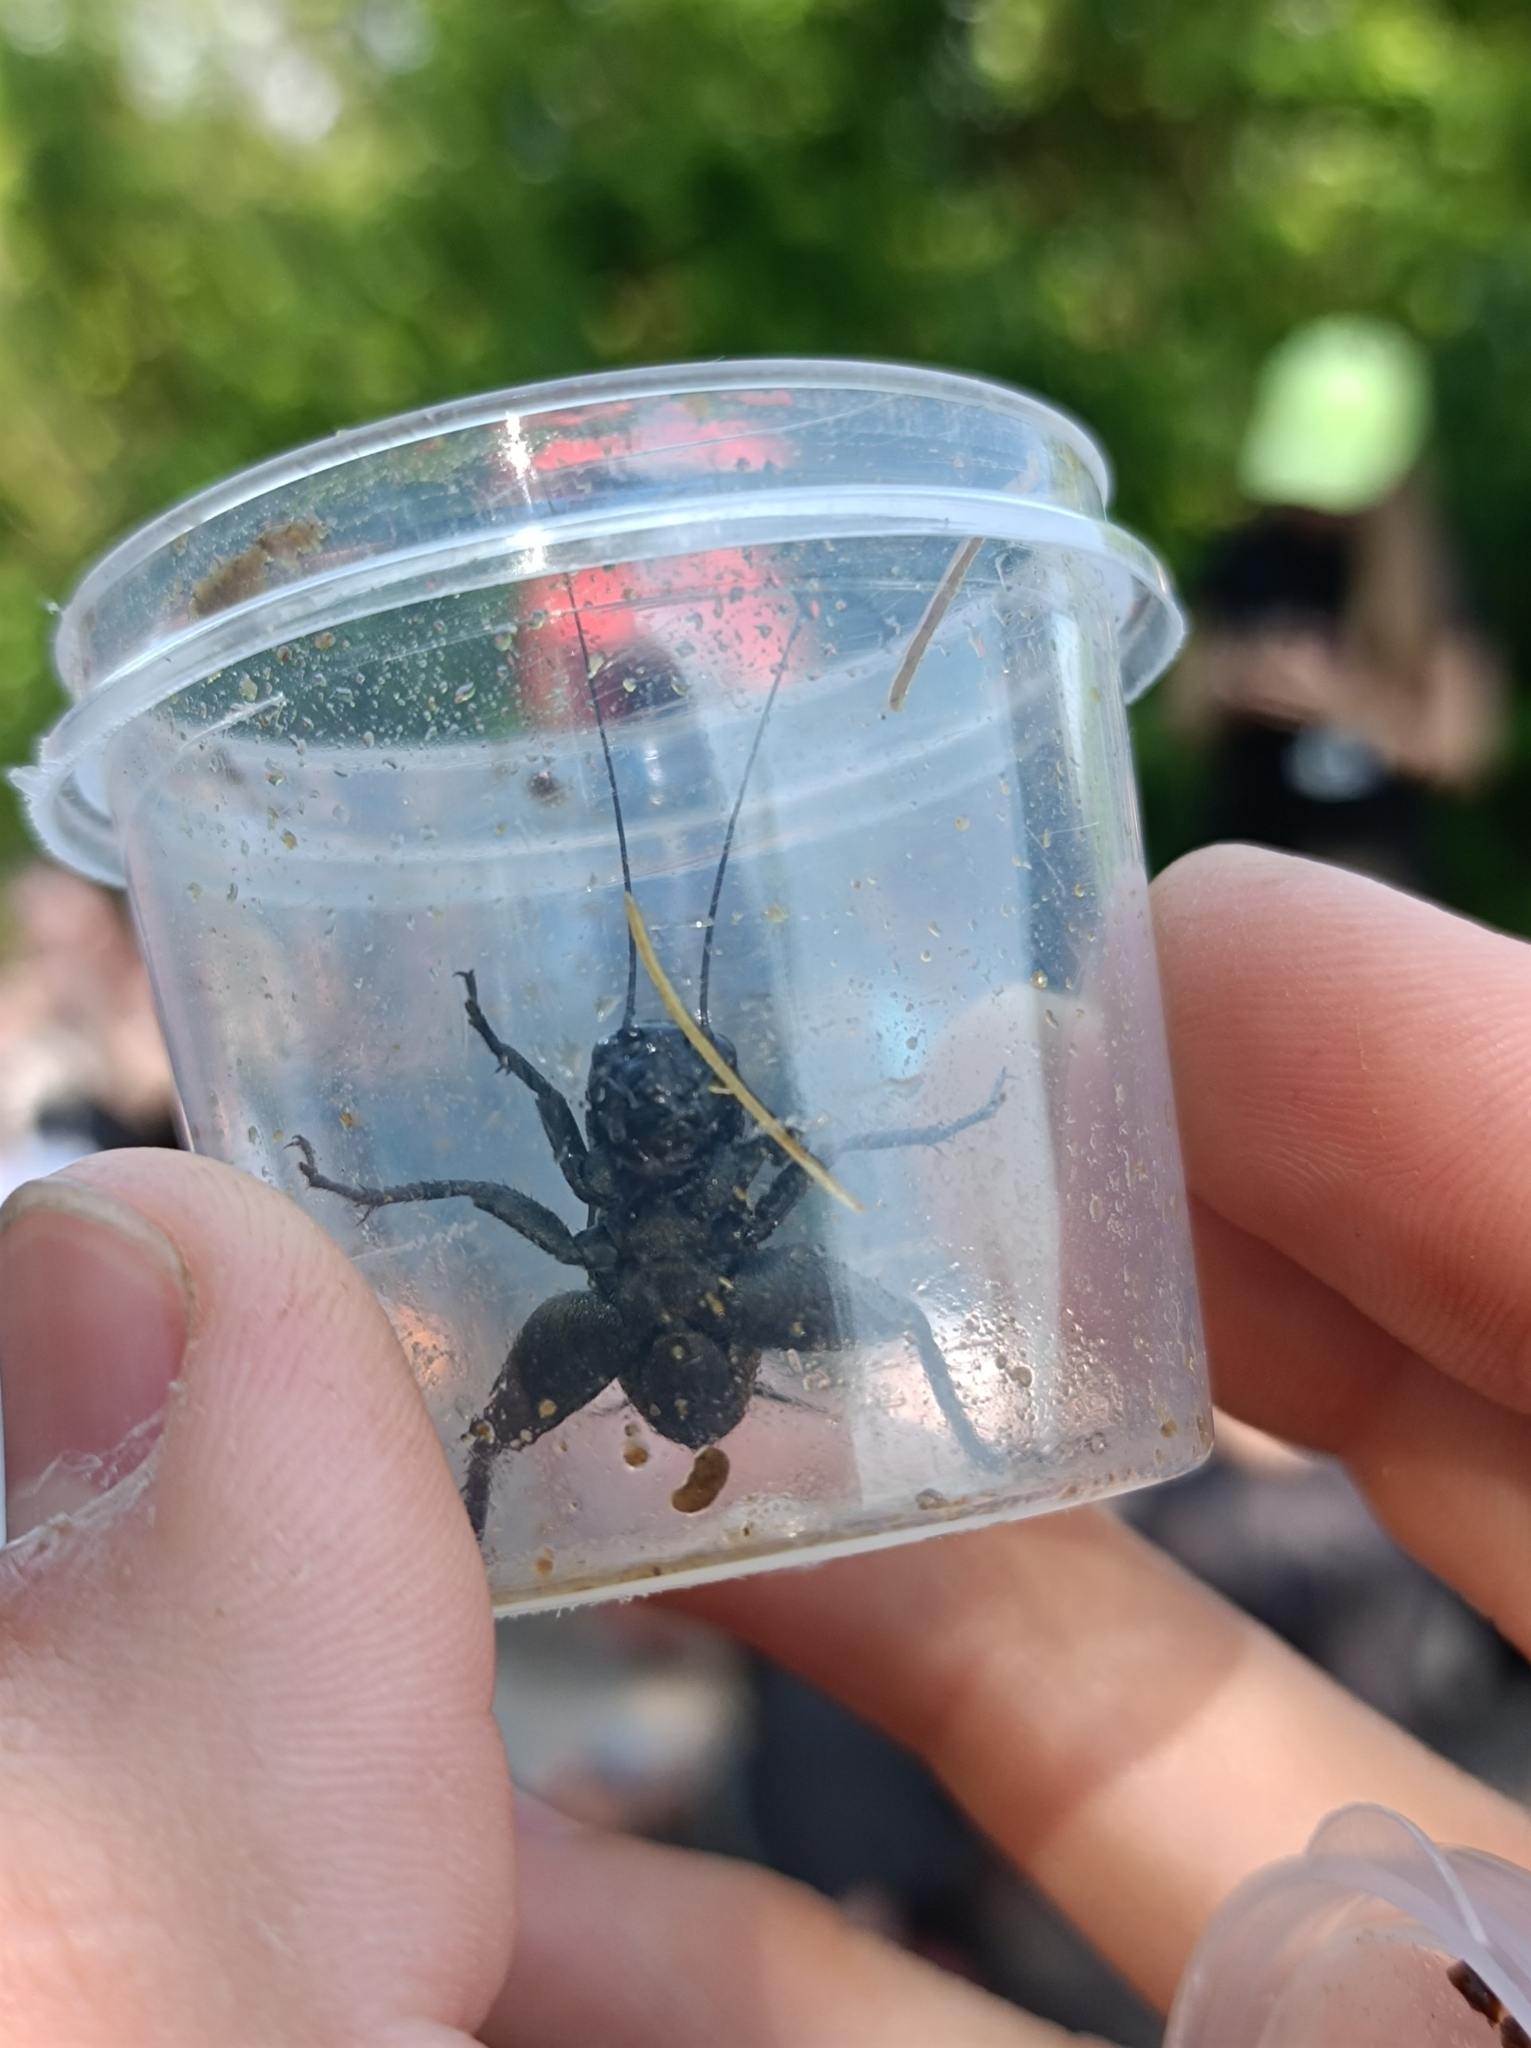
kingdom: Animalia
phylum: Arthropoda
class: Insecta
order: Orthoptera
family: Gryllidae
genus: Melanogryllus
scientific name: Melanogryllus desertus
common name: Desert cricket
